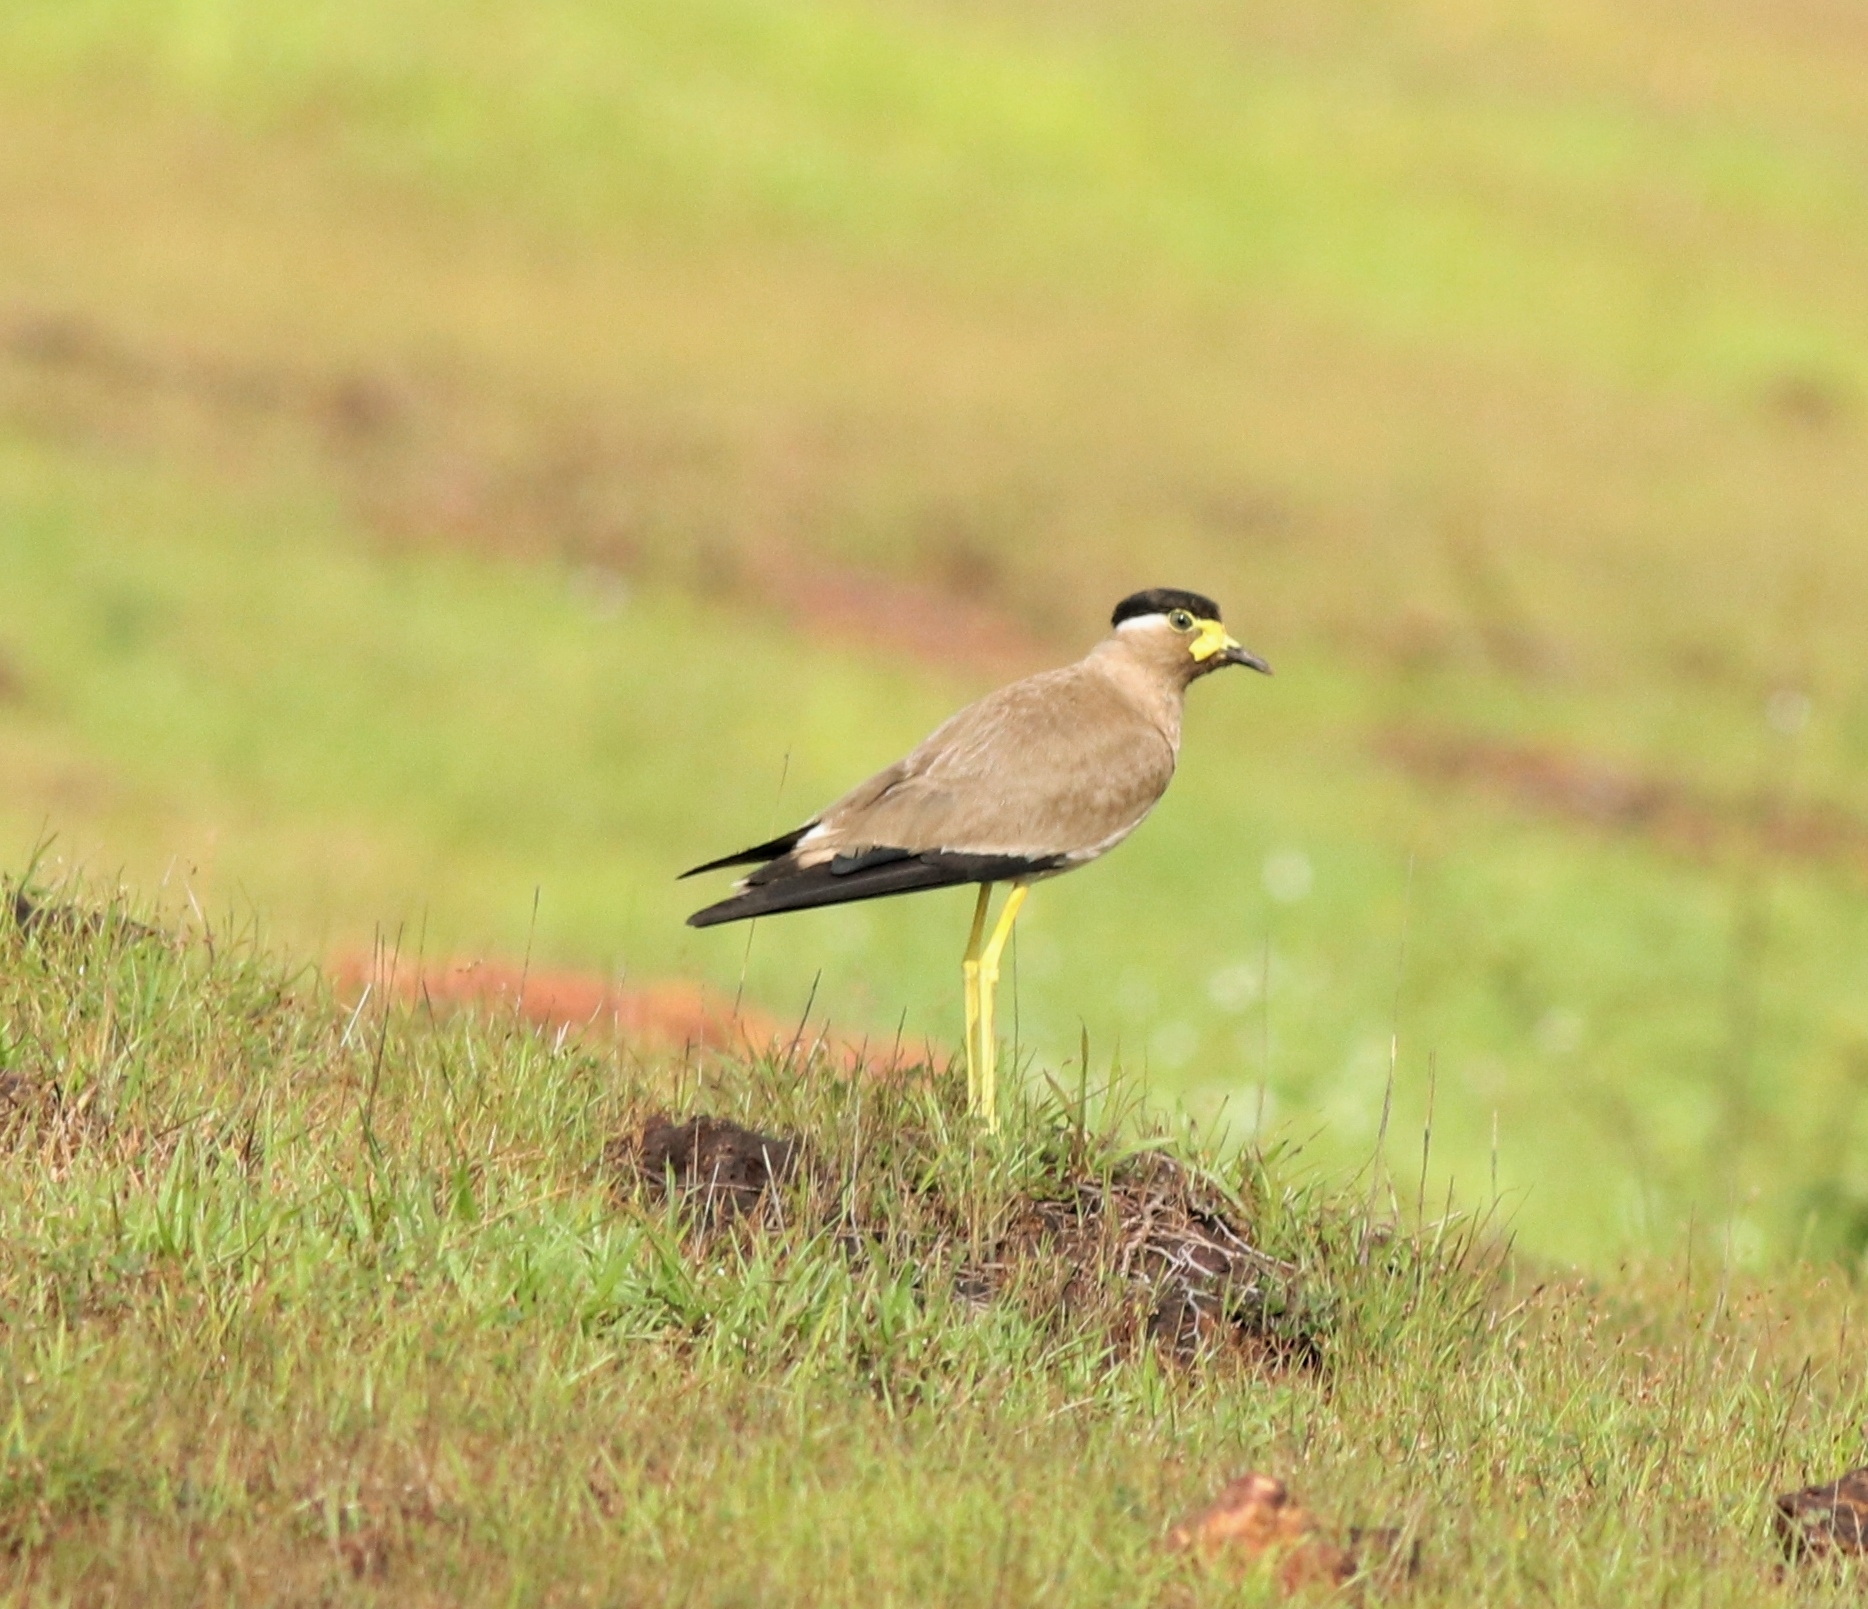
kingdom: Animalia
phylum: Chordata
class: Aves
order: Charadriiformes
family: Charadriidae
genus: Vanellus
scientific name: Vanellus malabaricus
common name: Yellow-wattled lapwing
